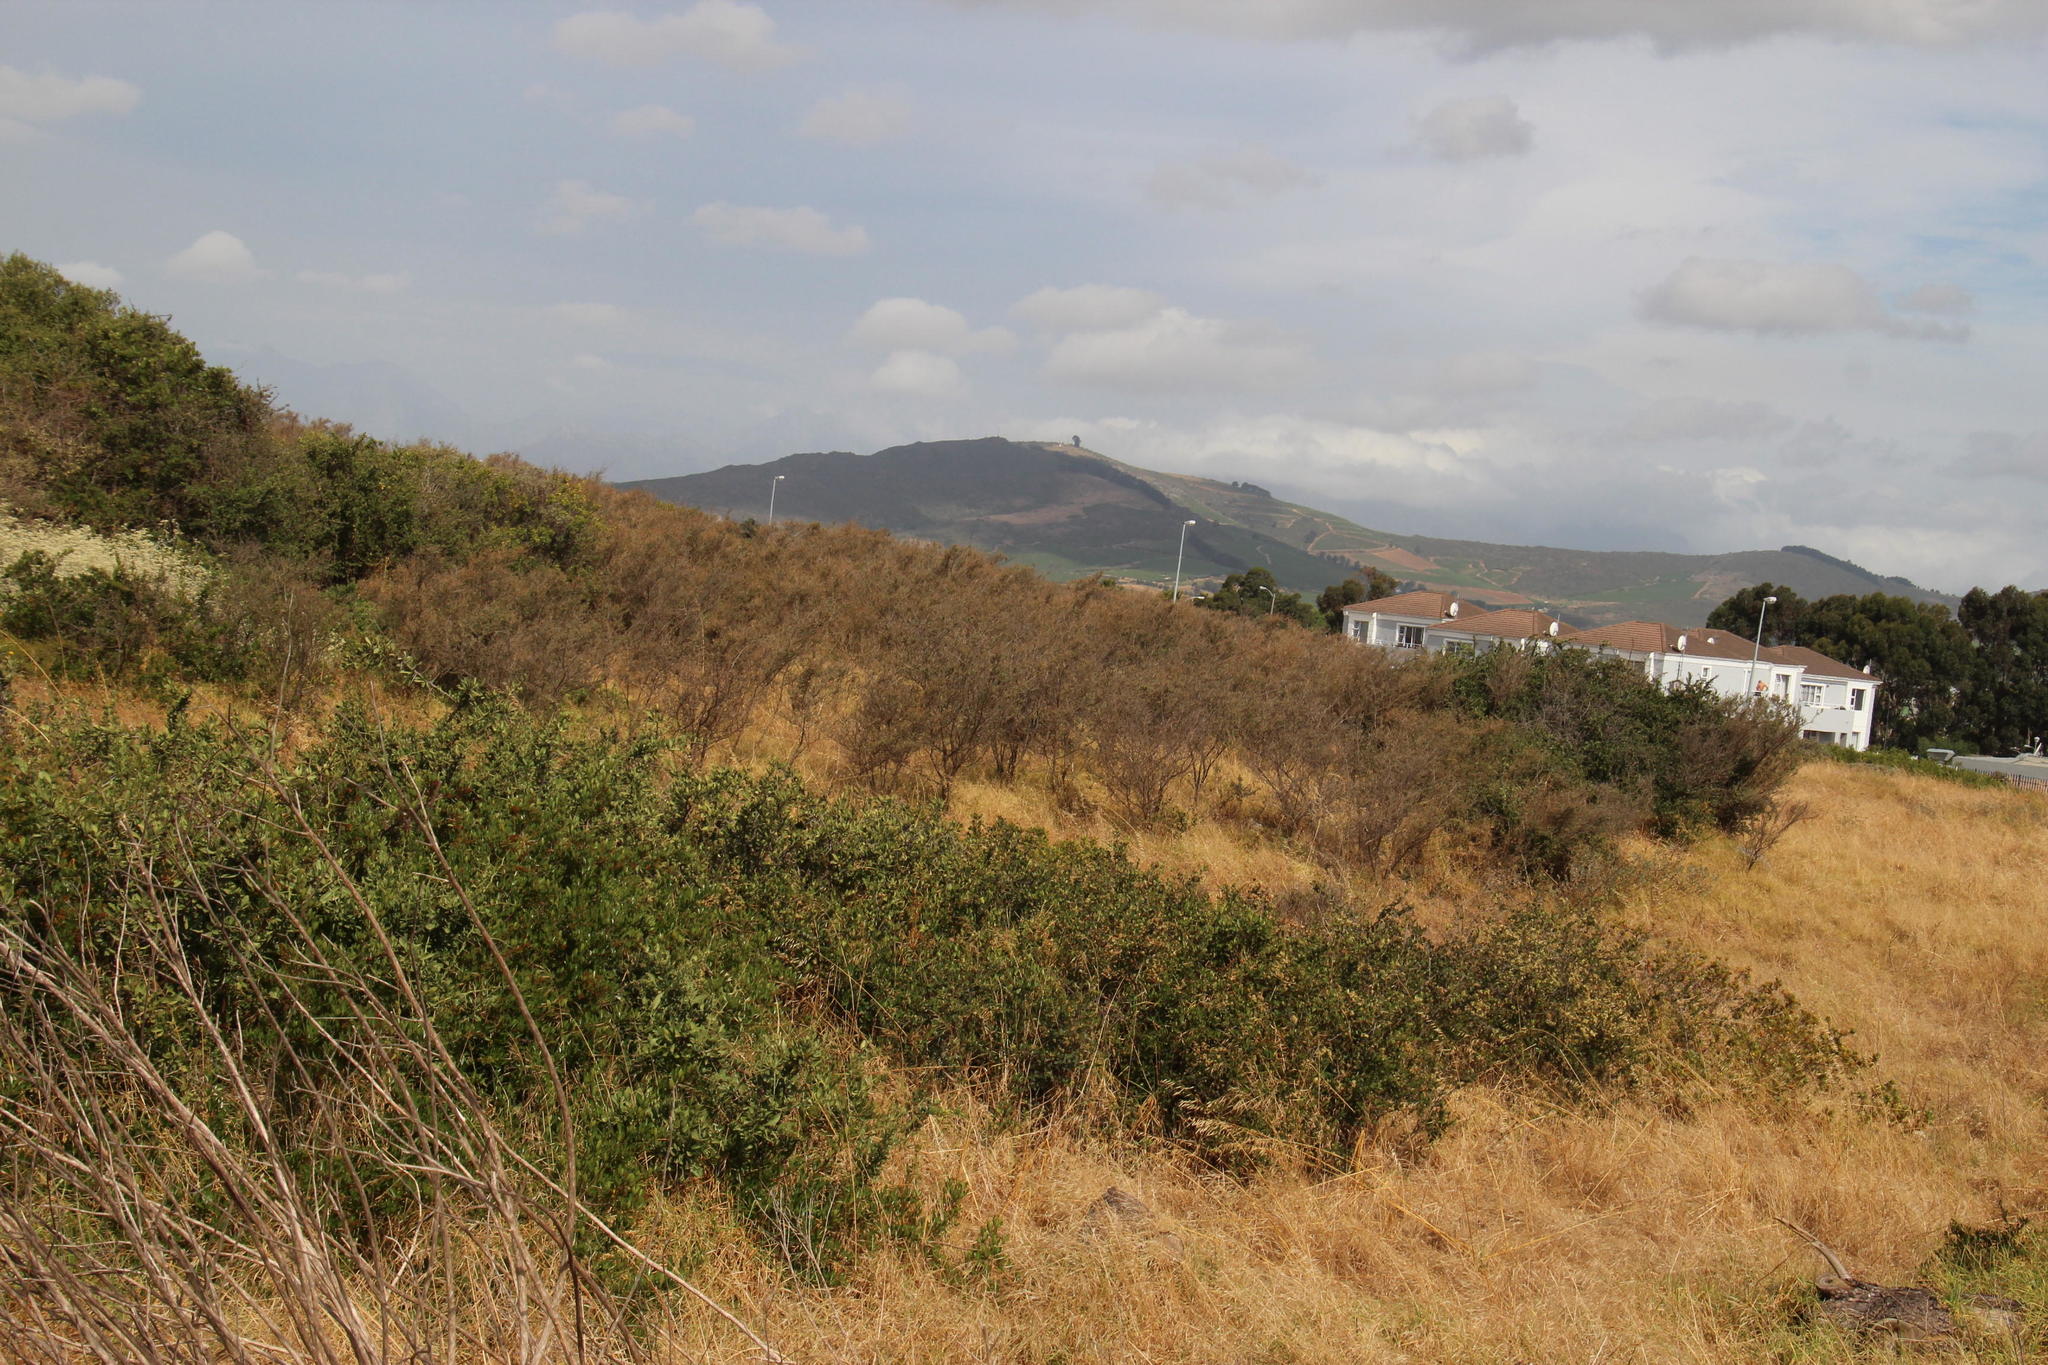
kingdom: Plantae
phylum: Tracheophyta
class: Magnoliopsida
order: Fabales
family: Fabaceae
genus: Psoralea
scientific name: Psoralea hirta
